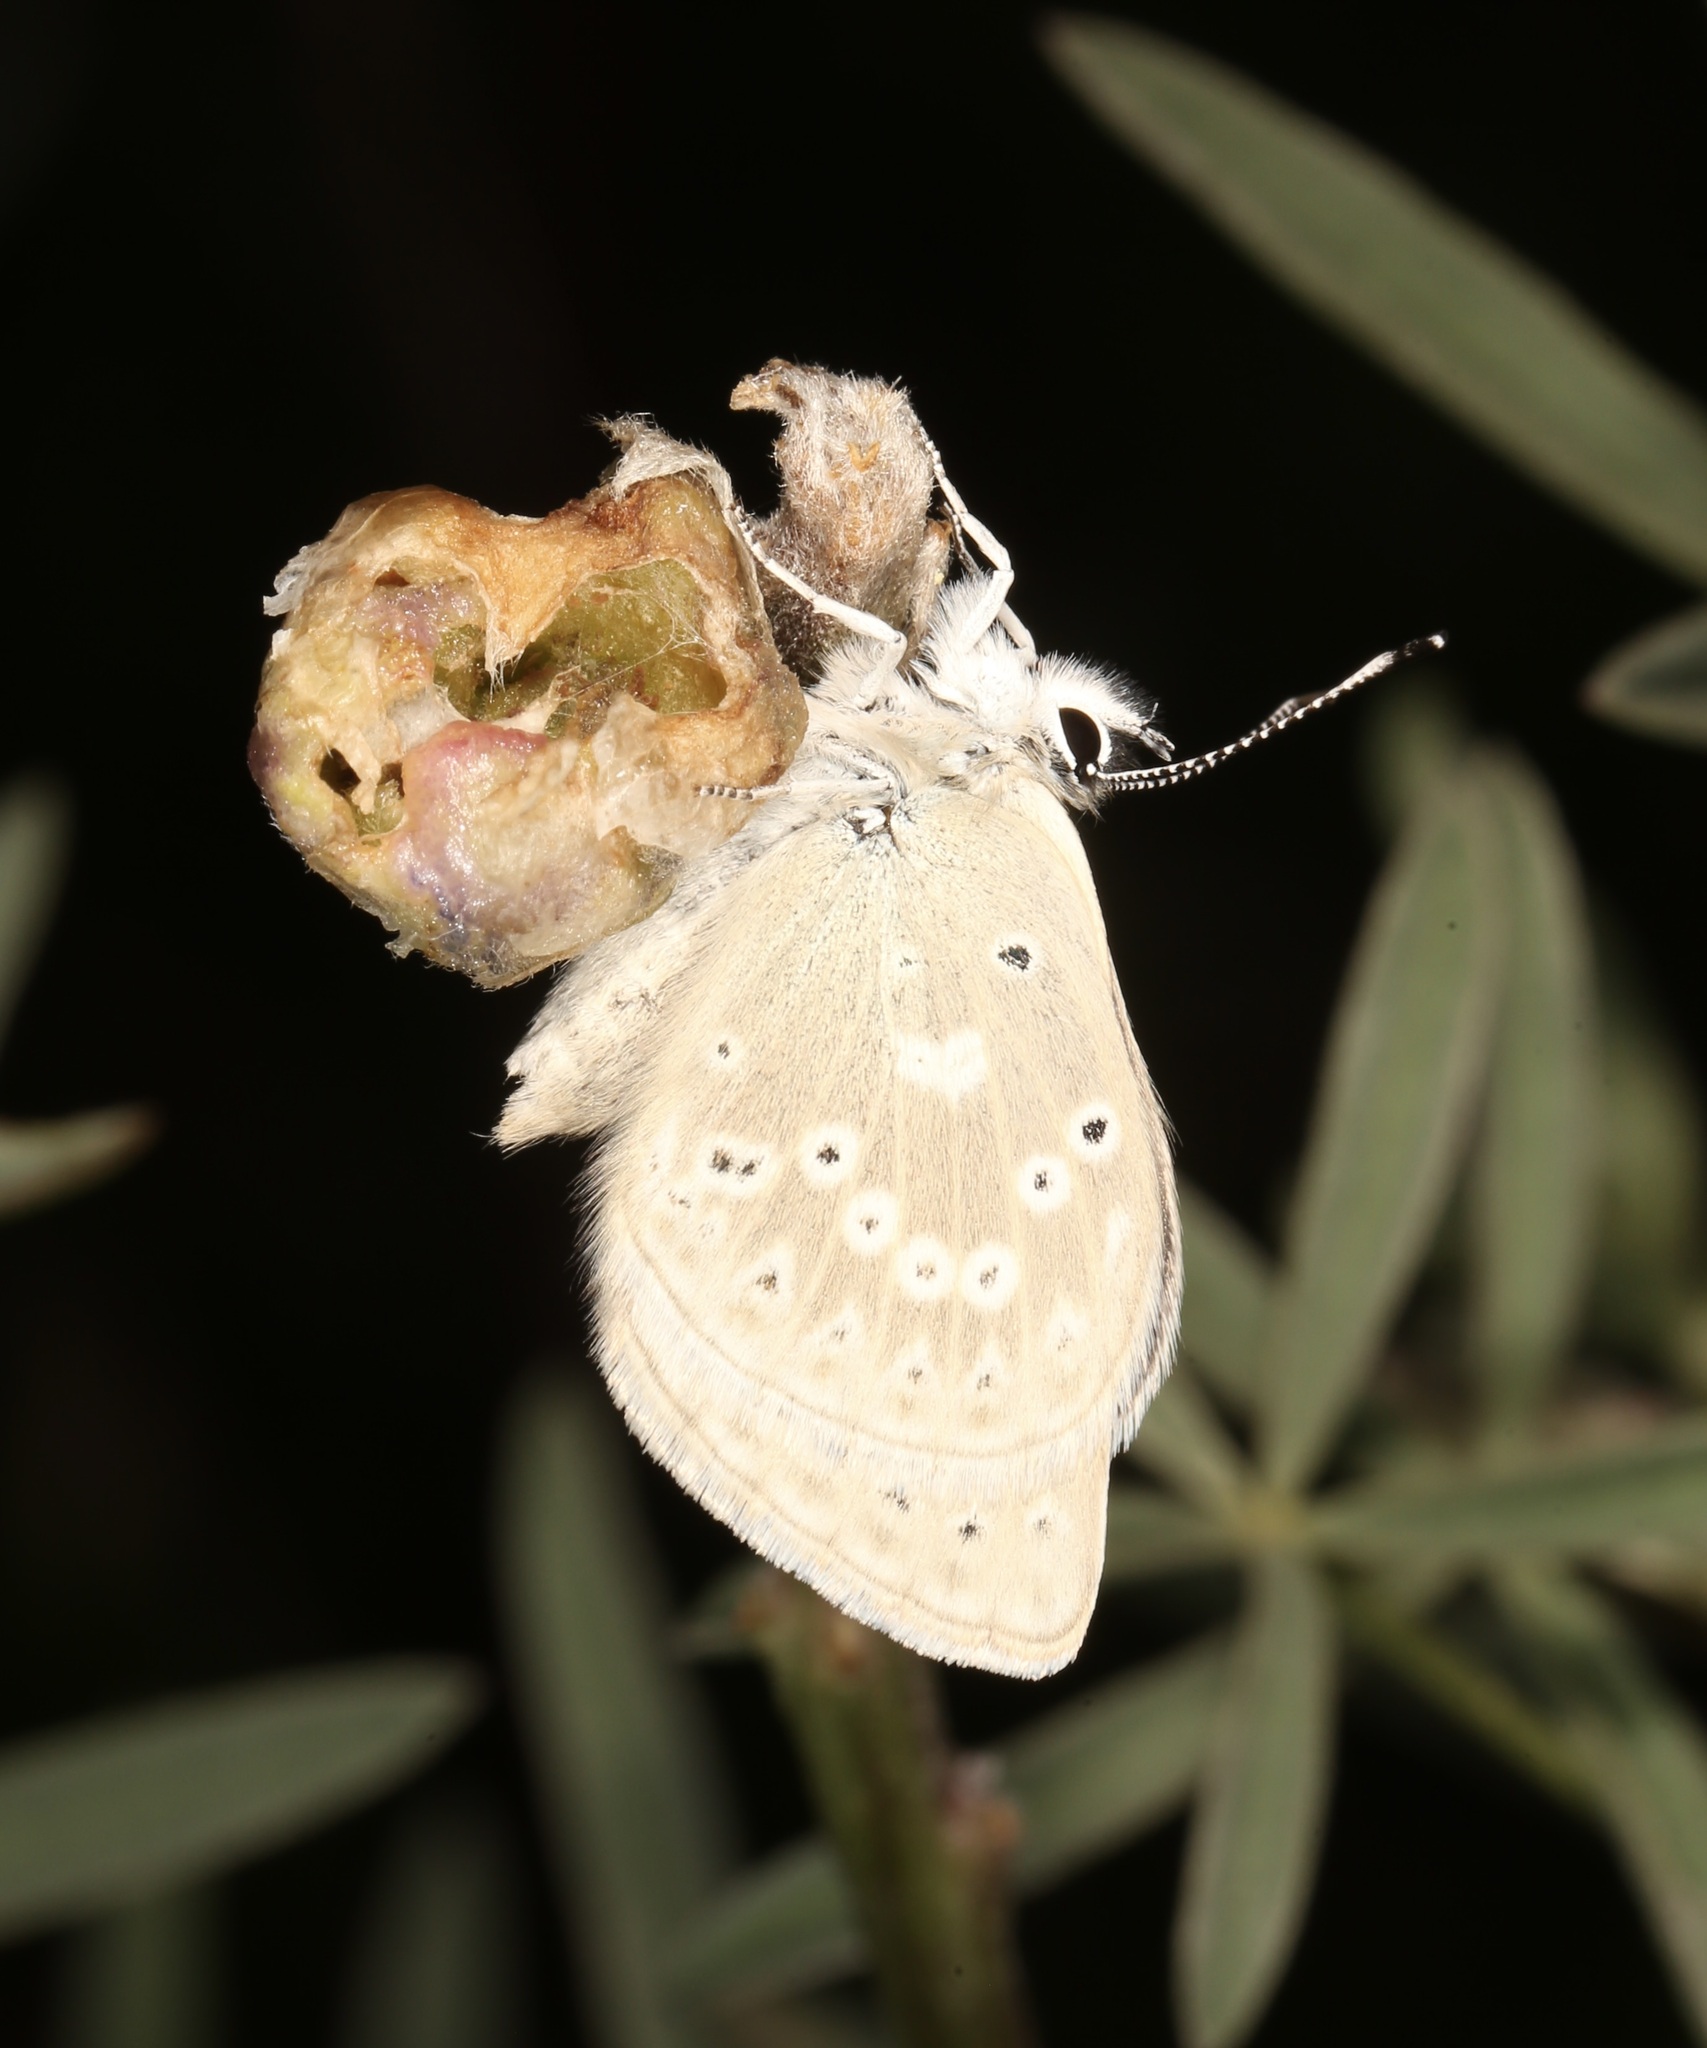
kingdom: Animalia
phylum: Arthropoda
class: Insecta
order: Lepidoptera
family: Lycaenidae
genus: Icaricia
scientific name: Icaricia icarioides
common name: Boisduval's blue
